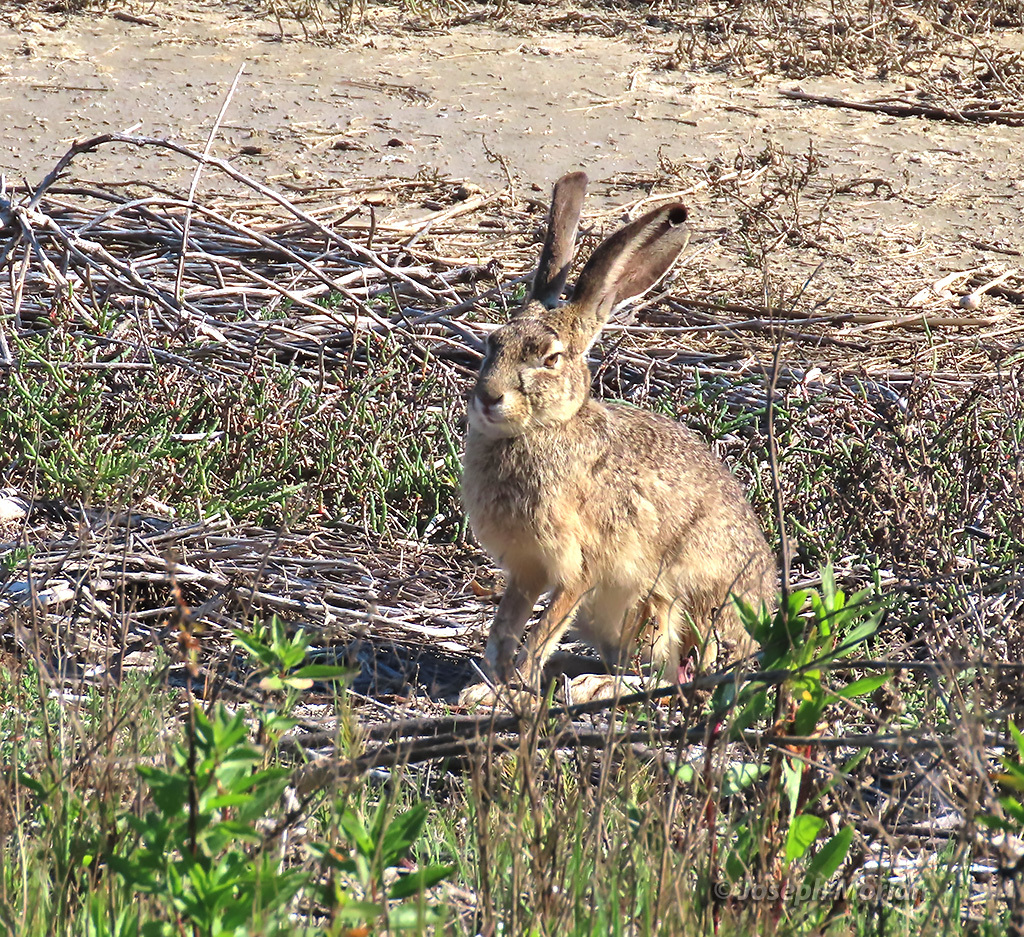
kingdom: Animalia
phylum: Chordata
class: Mammalia
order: Lagomorpha
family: Leporidae
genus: Lepus
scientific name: Lepus californicus
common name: Black-tailed jackrabbit
